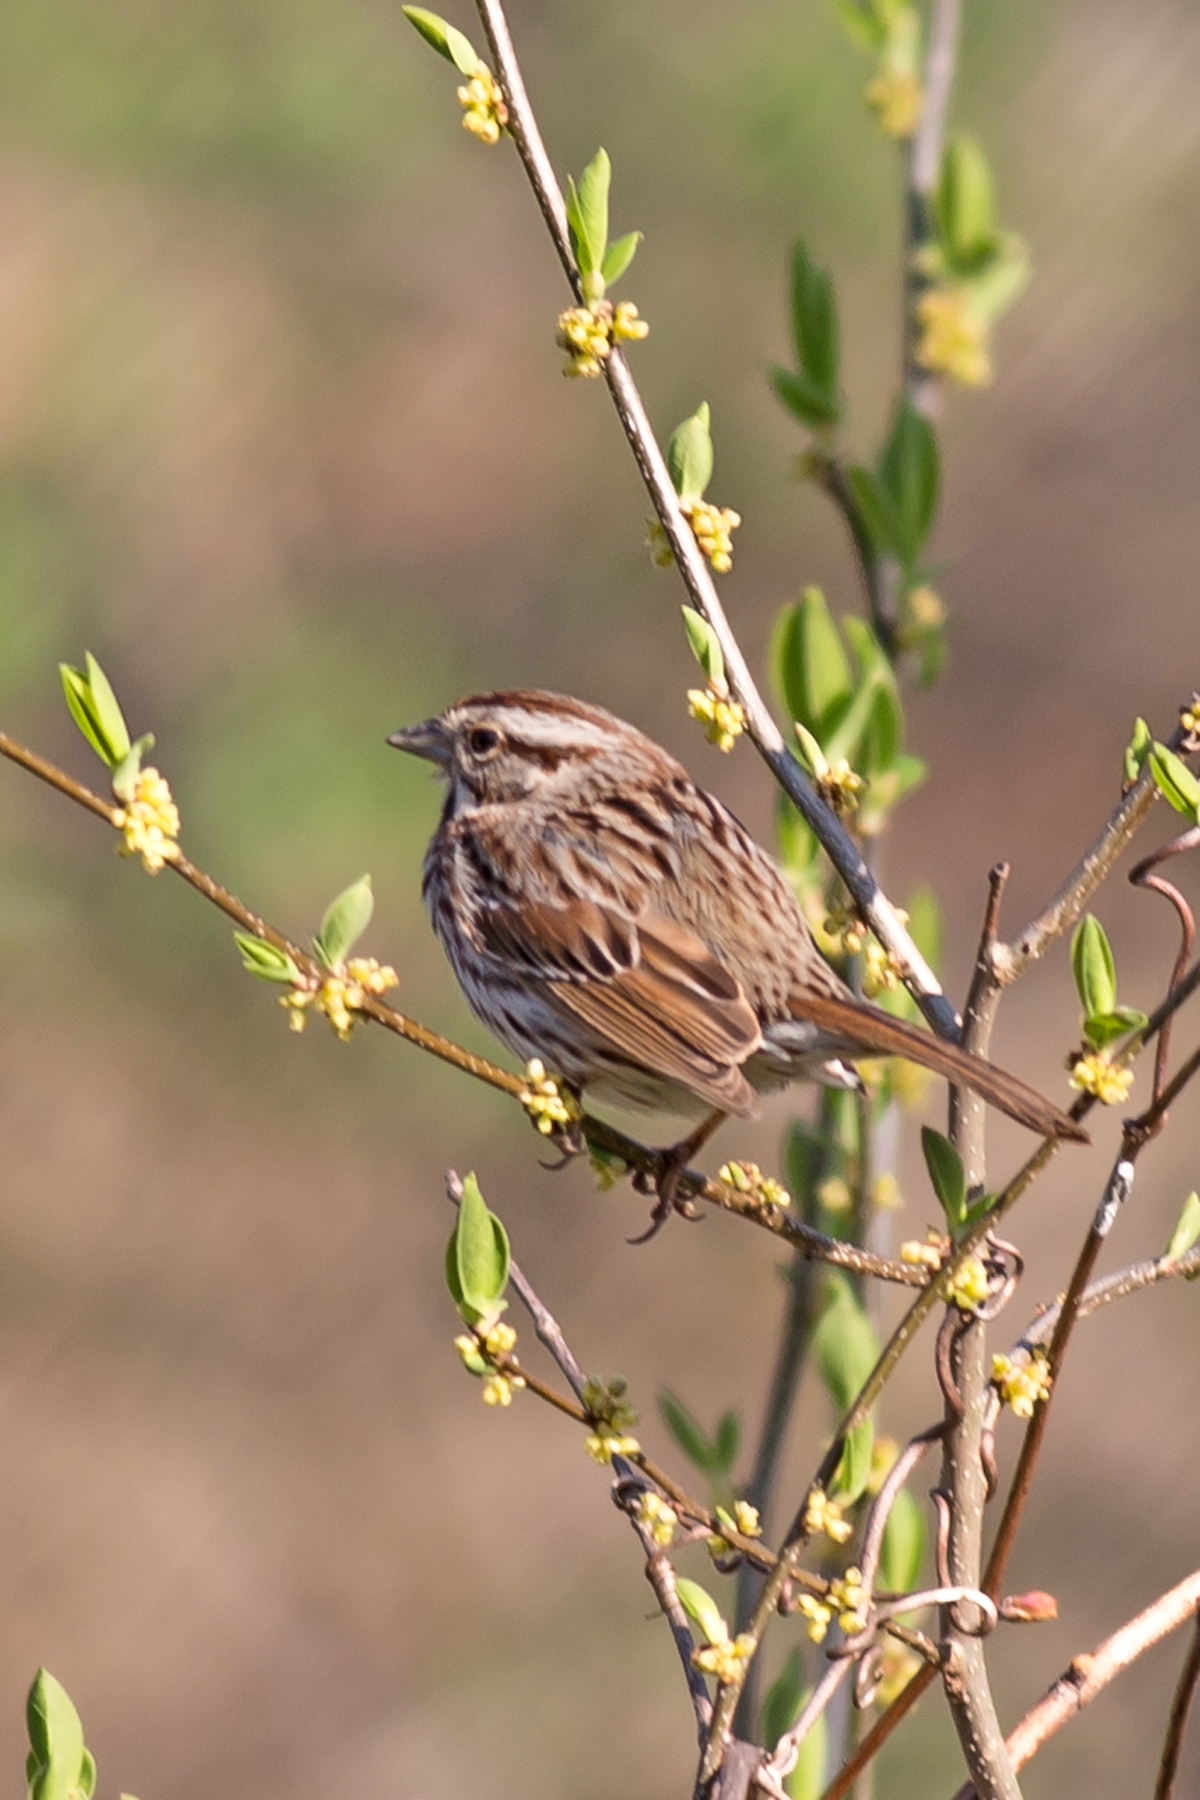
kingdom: Animalia
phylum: Chordata
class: Aves
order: Passeriformes
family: Passerellidae
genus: Melospiza
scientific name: Melospiza melodia
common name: Song sparrow
